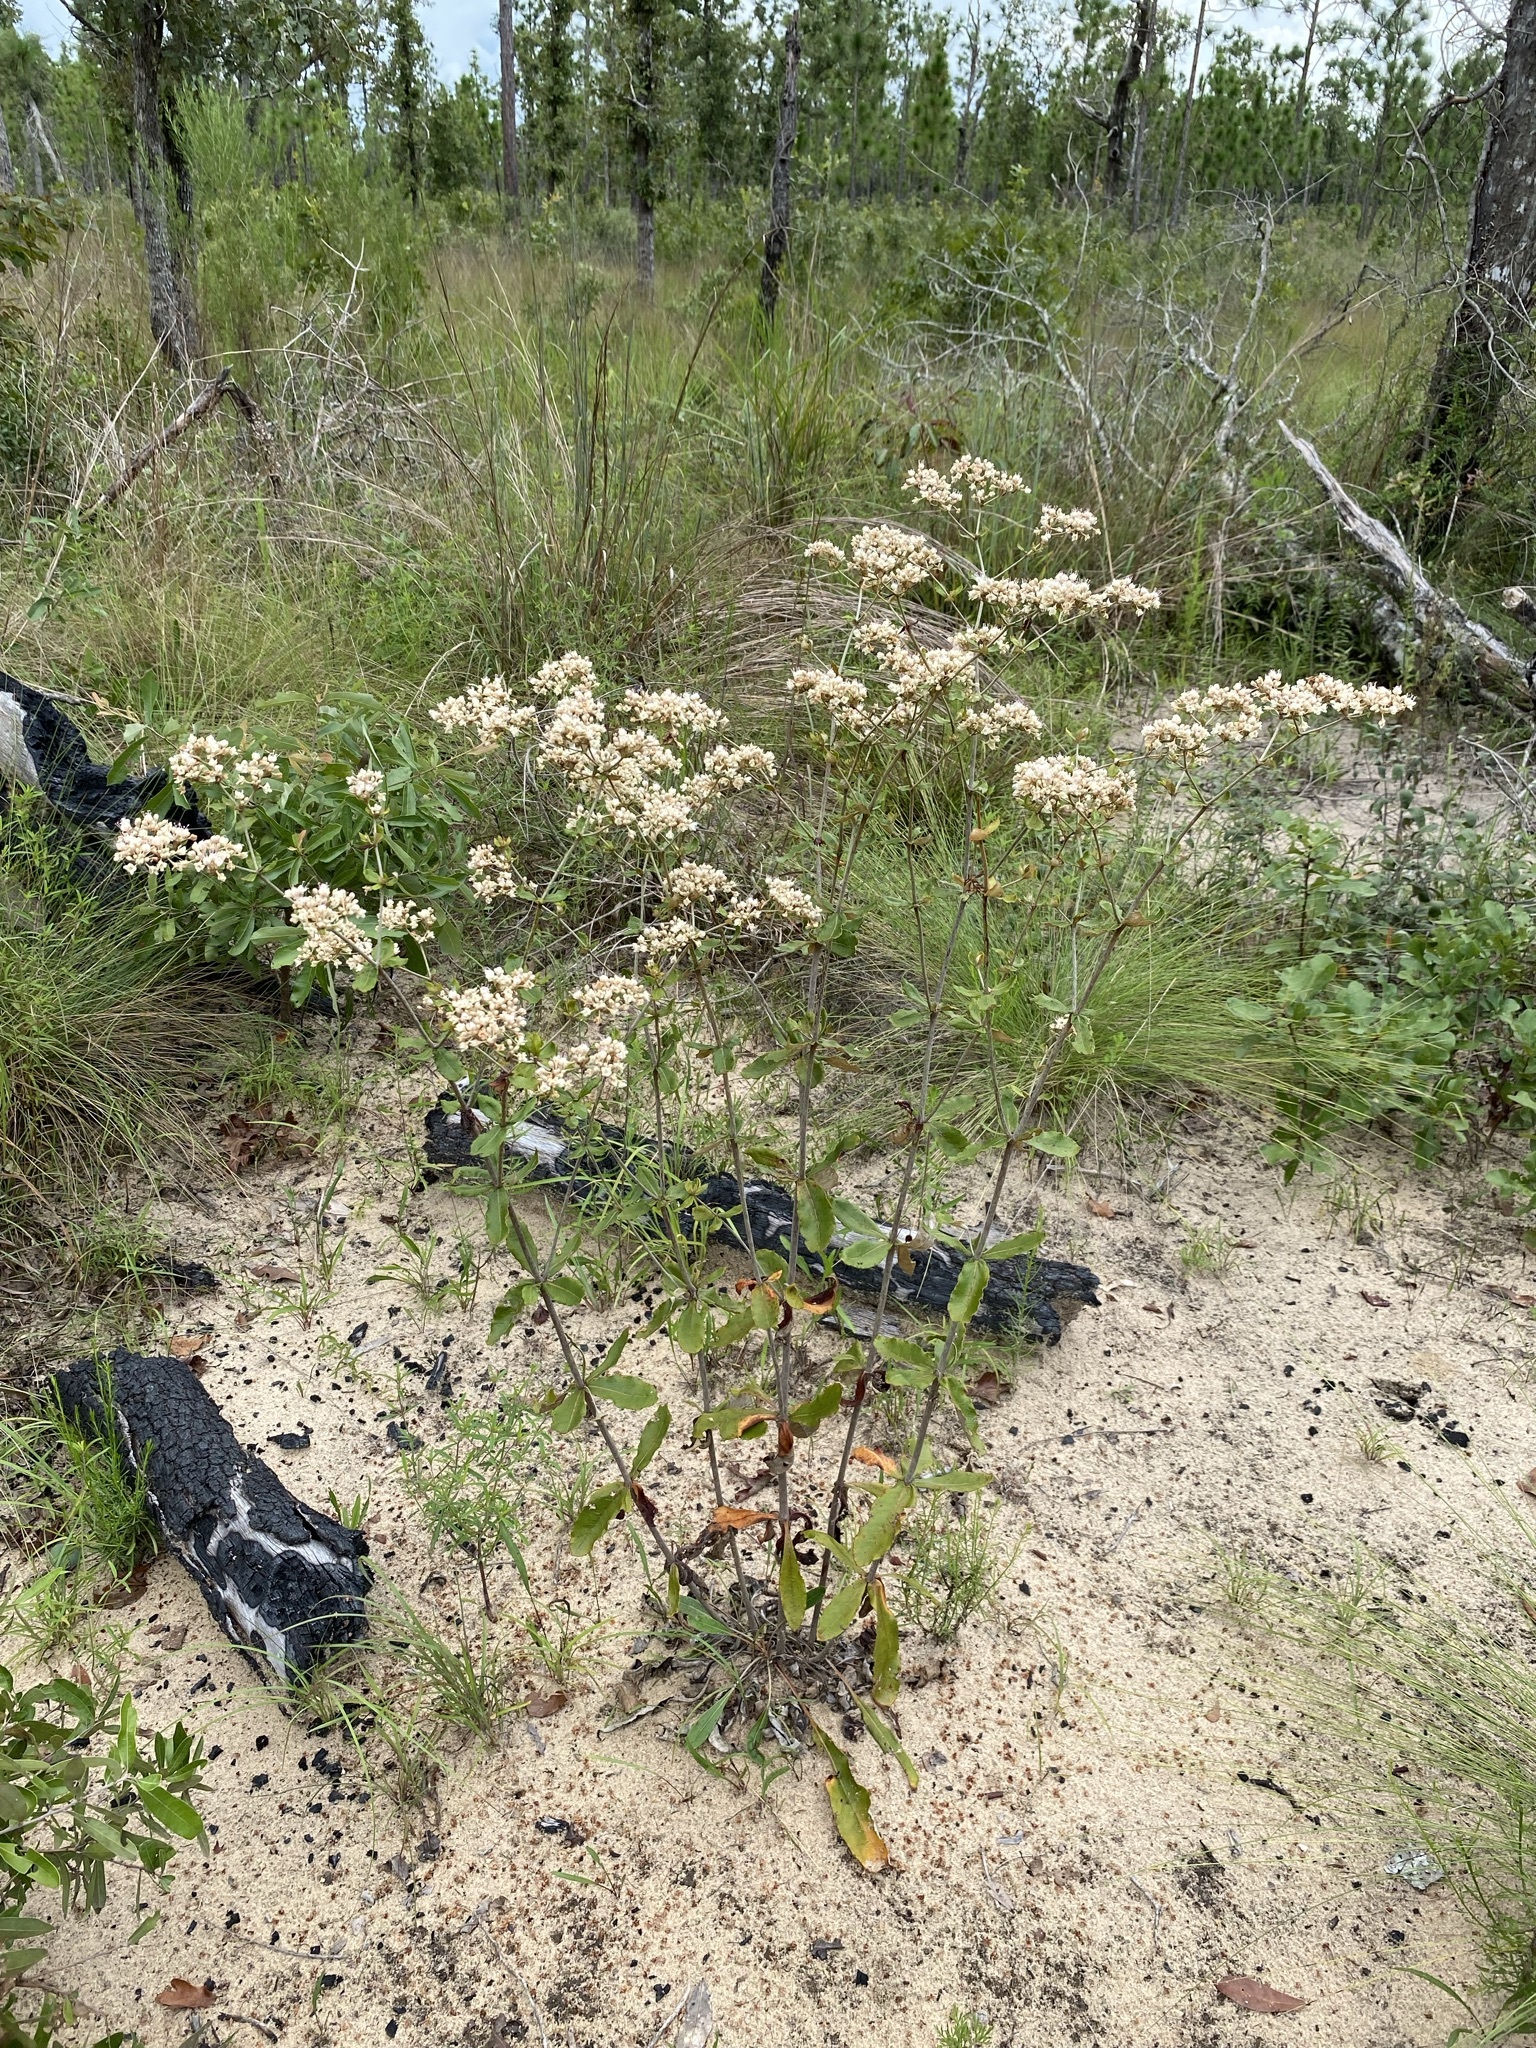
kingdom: Plantae
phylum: Tracheophyta
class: Magnoliopsida
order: Caryophyllales
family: Polygonaceae
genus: Eriogonum
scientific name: Eriogonum tomentosum
